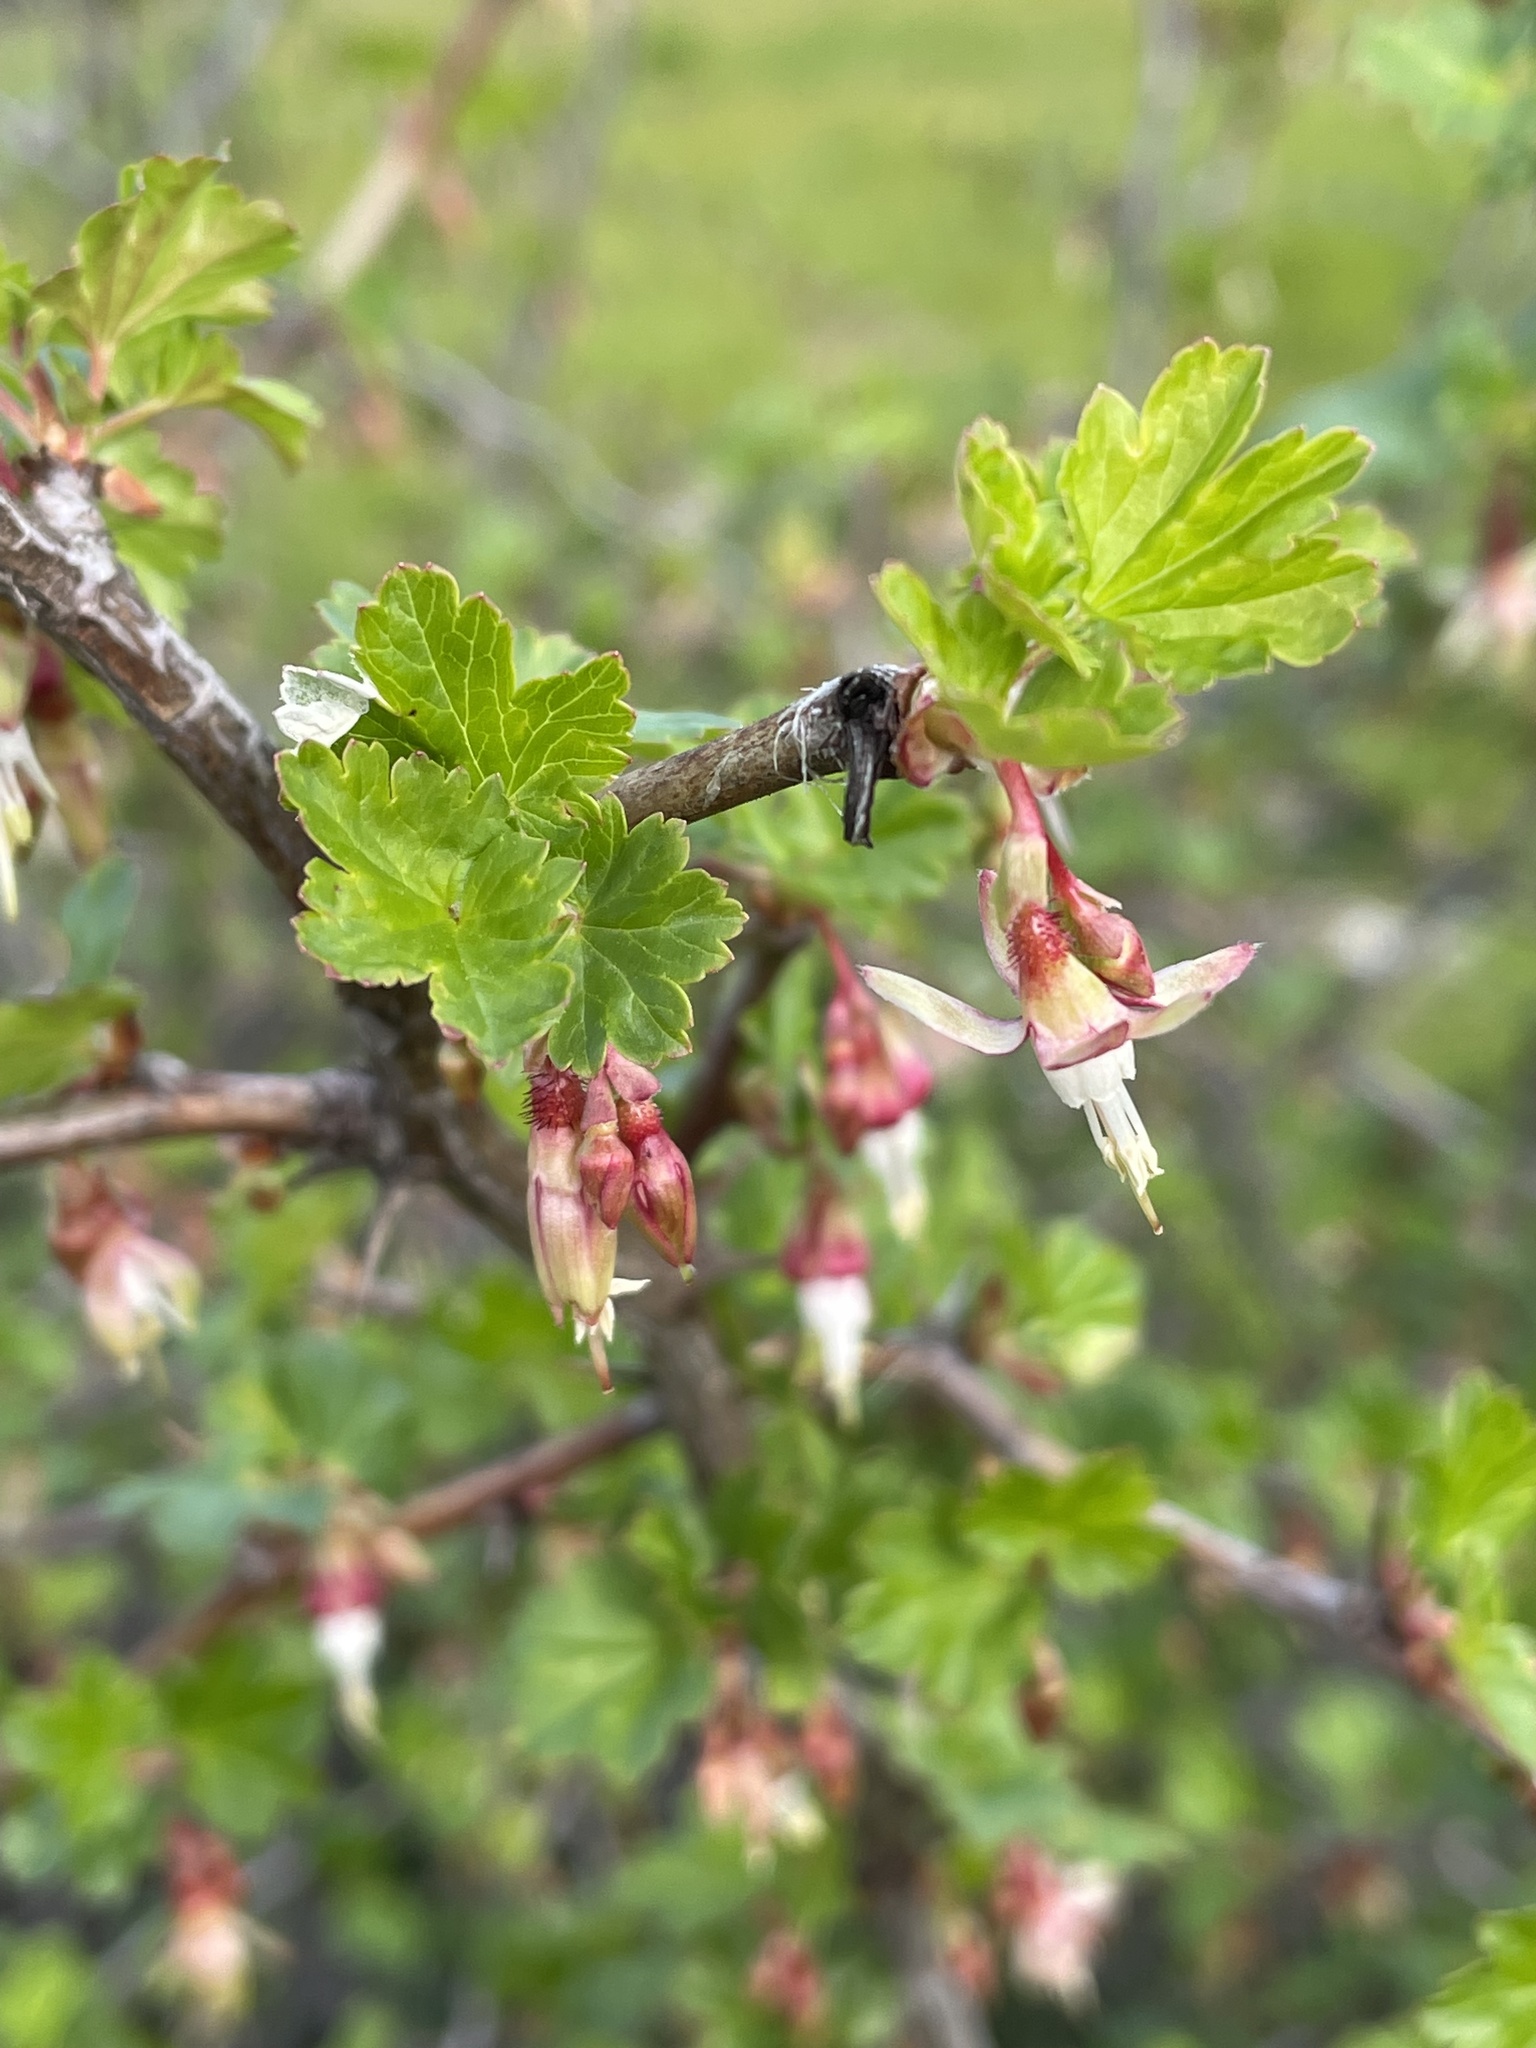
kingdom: Plantae
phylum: Tracheophyta
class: Magnoliopsida
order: Saxifragales
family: Grossulariaceae
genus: Ribes
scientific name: Ribes californicum
